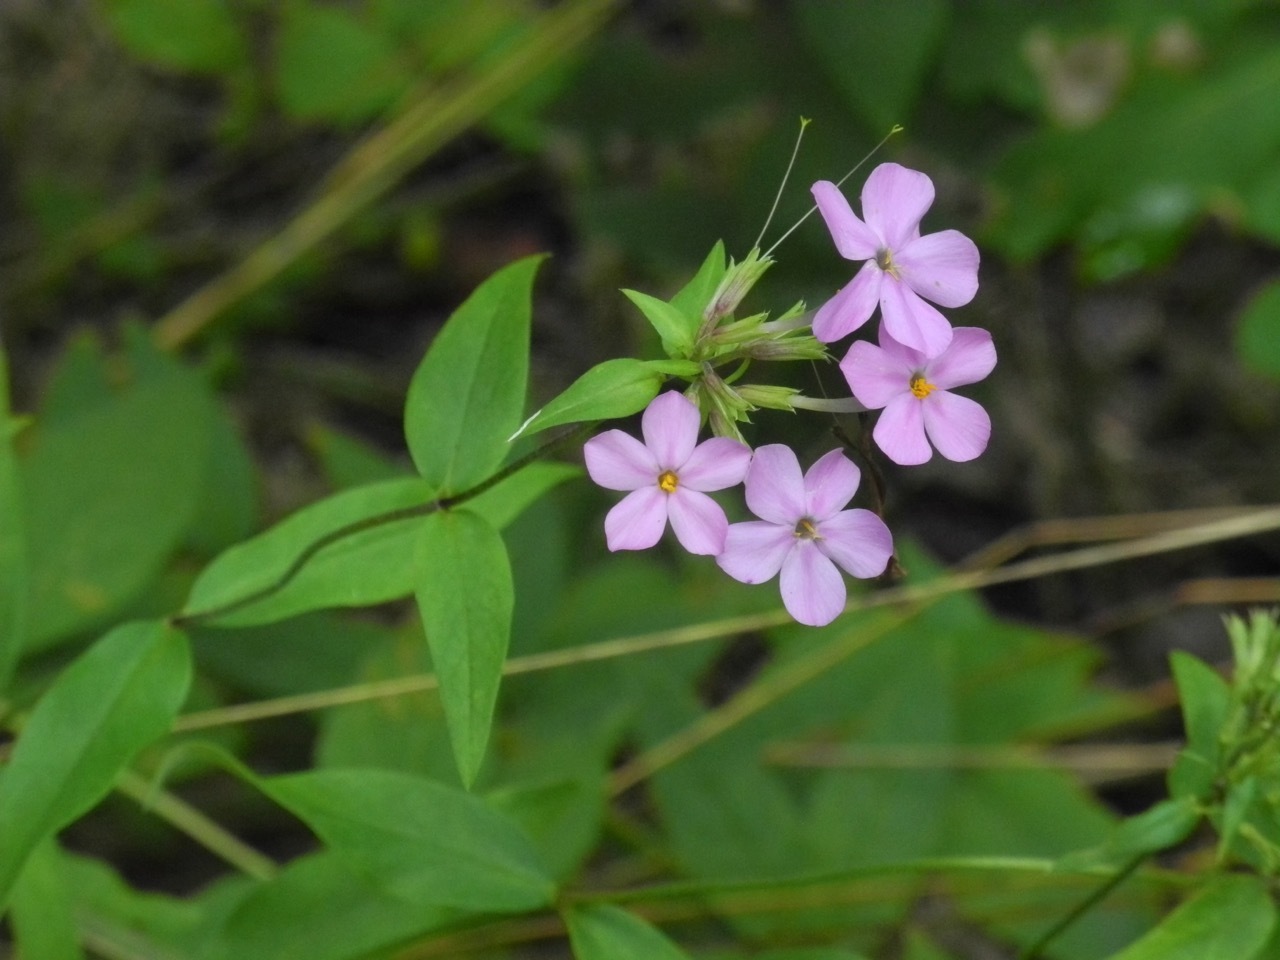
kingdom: Plantae
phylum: Tracheophyta
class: Magnoliopsida
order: Ericales
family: Polemoniaceae
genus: Phlox
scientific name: Phlox maculata
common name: Meadow phlox
